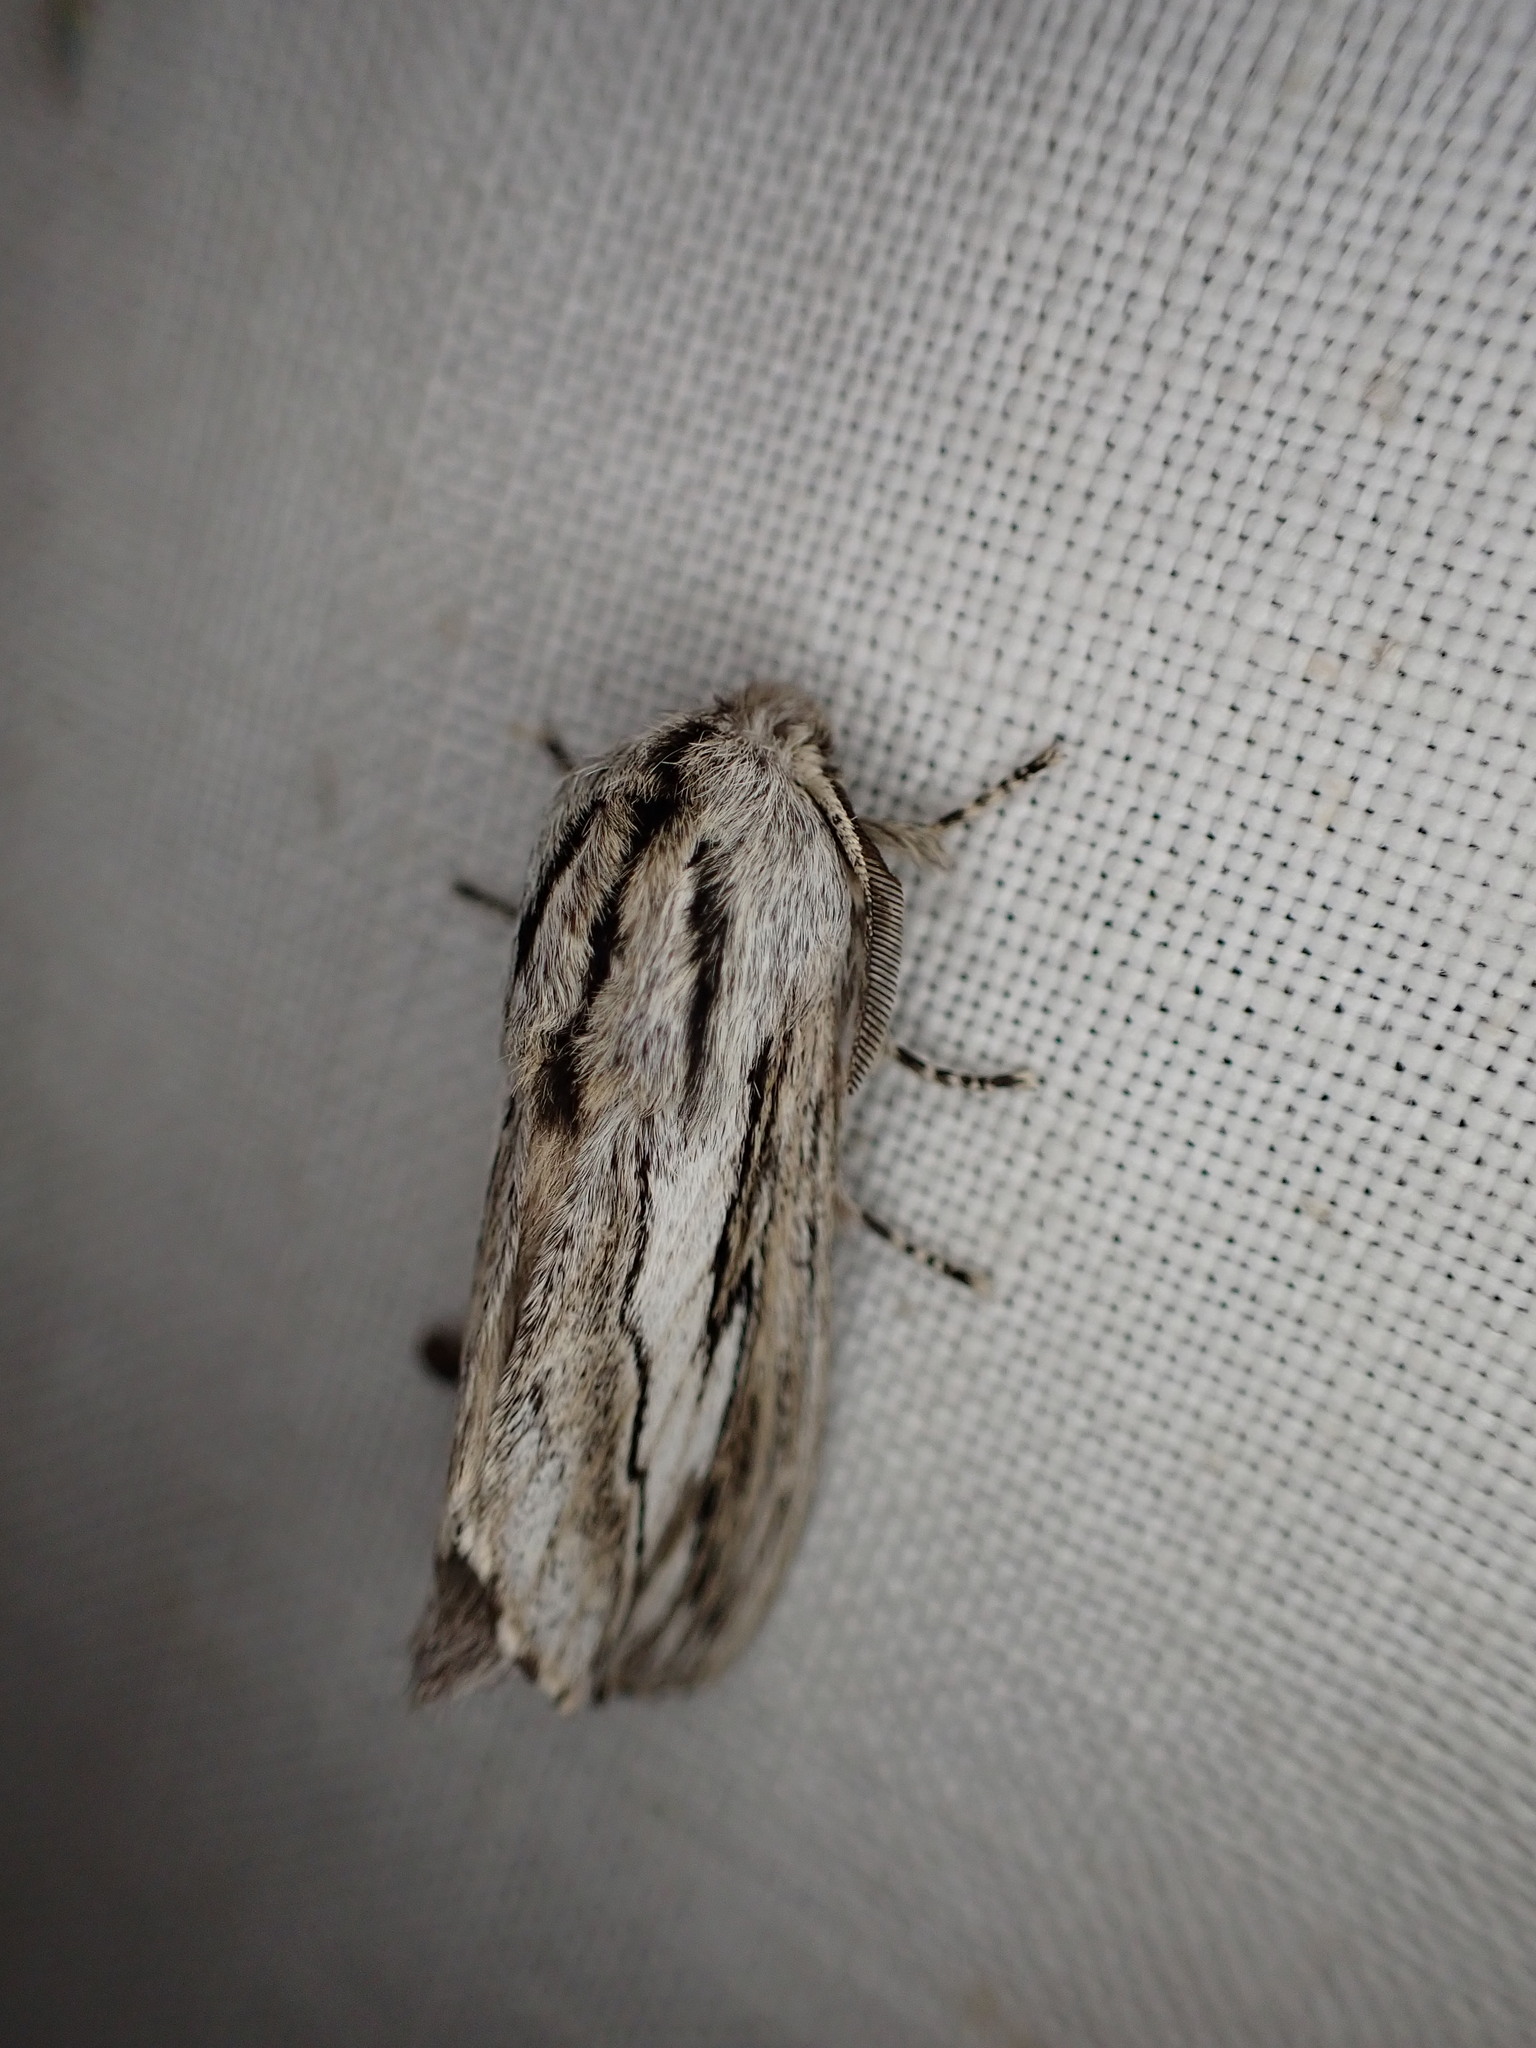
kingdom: Animalia
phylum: Arthropoda
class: Insecta
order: Lepidoptera
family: Lasiocampidae
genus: Gufria
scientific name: Gufria limosa
